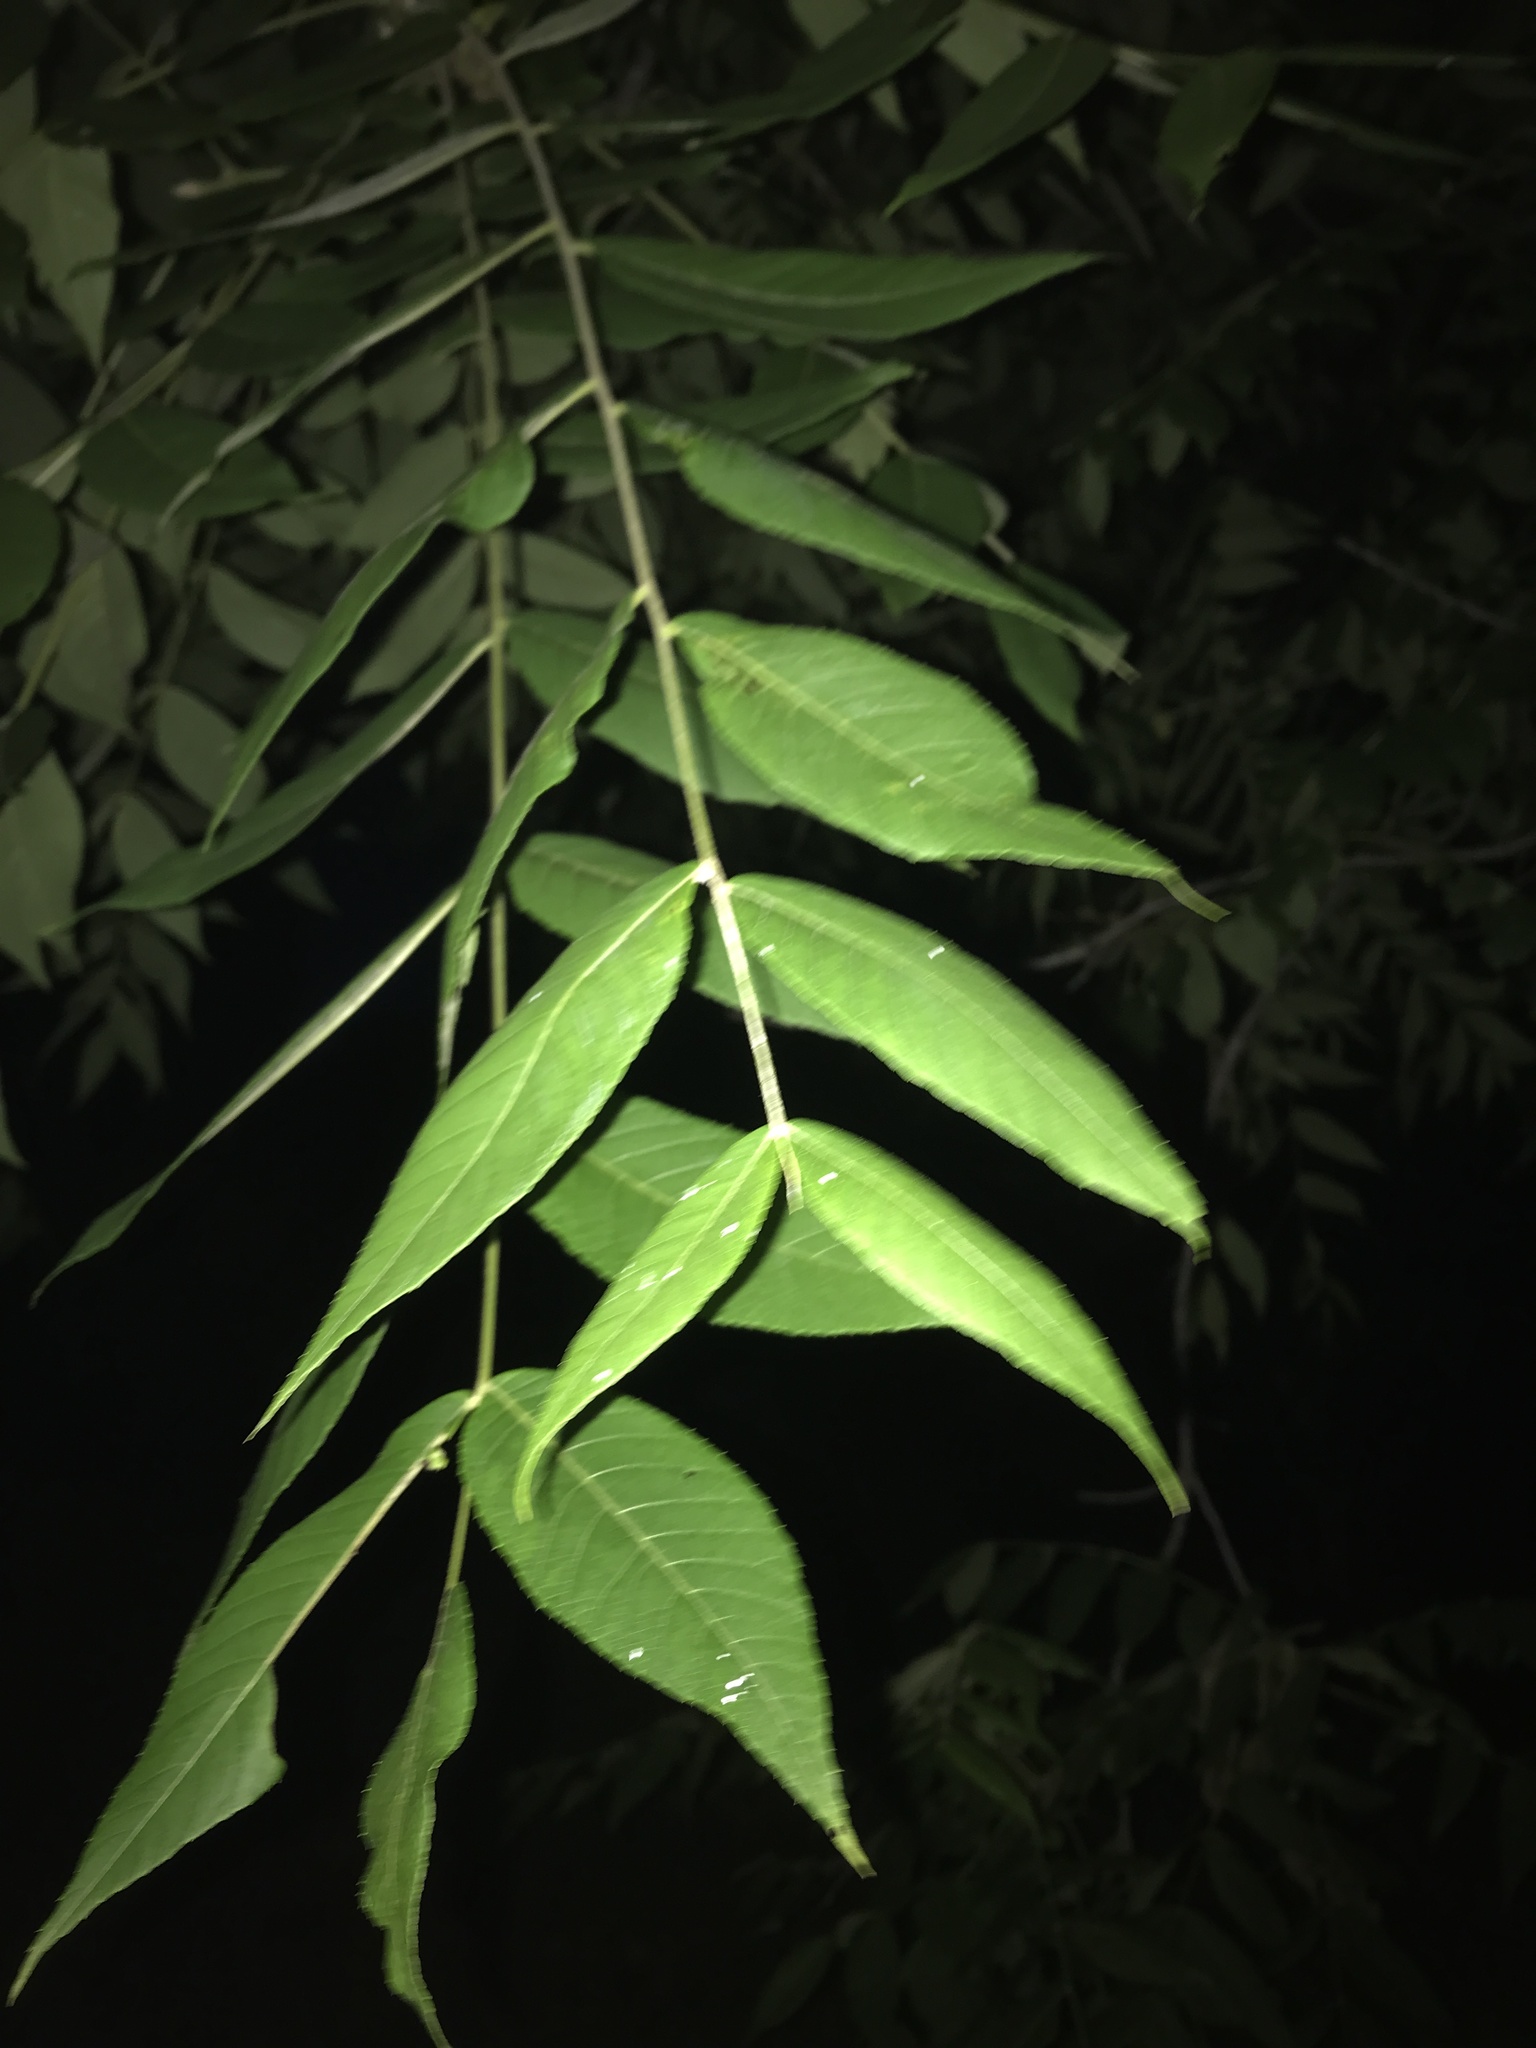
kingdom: Plantae
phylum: Tracheophyta
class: Magnoliopsida
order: Fagales
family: Juglandaceae
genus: Juglans
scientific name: Juglans nigra
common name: Black walnut
